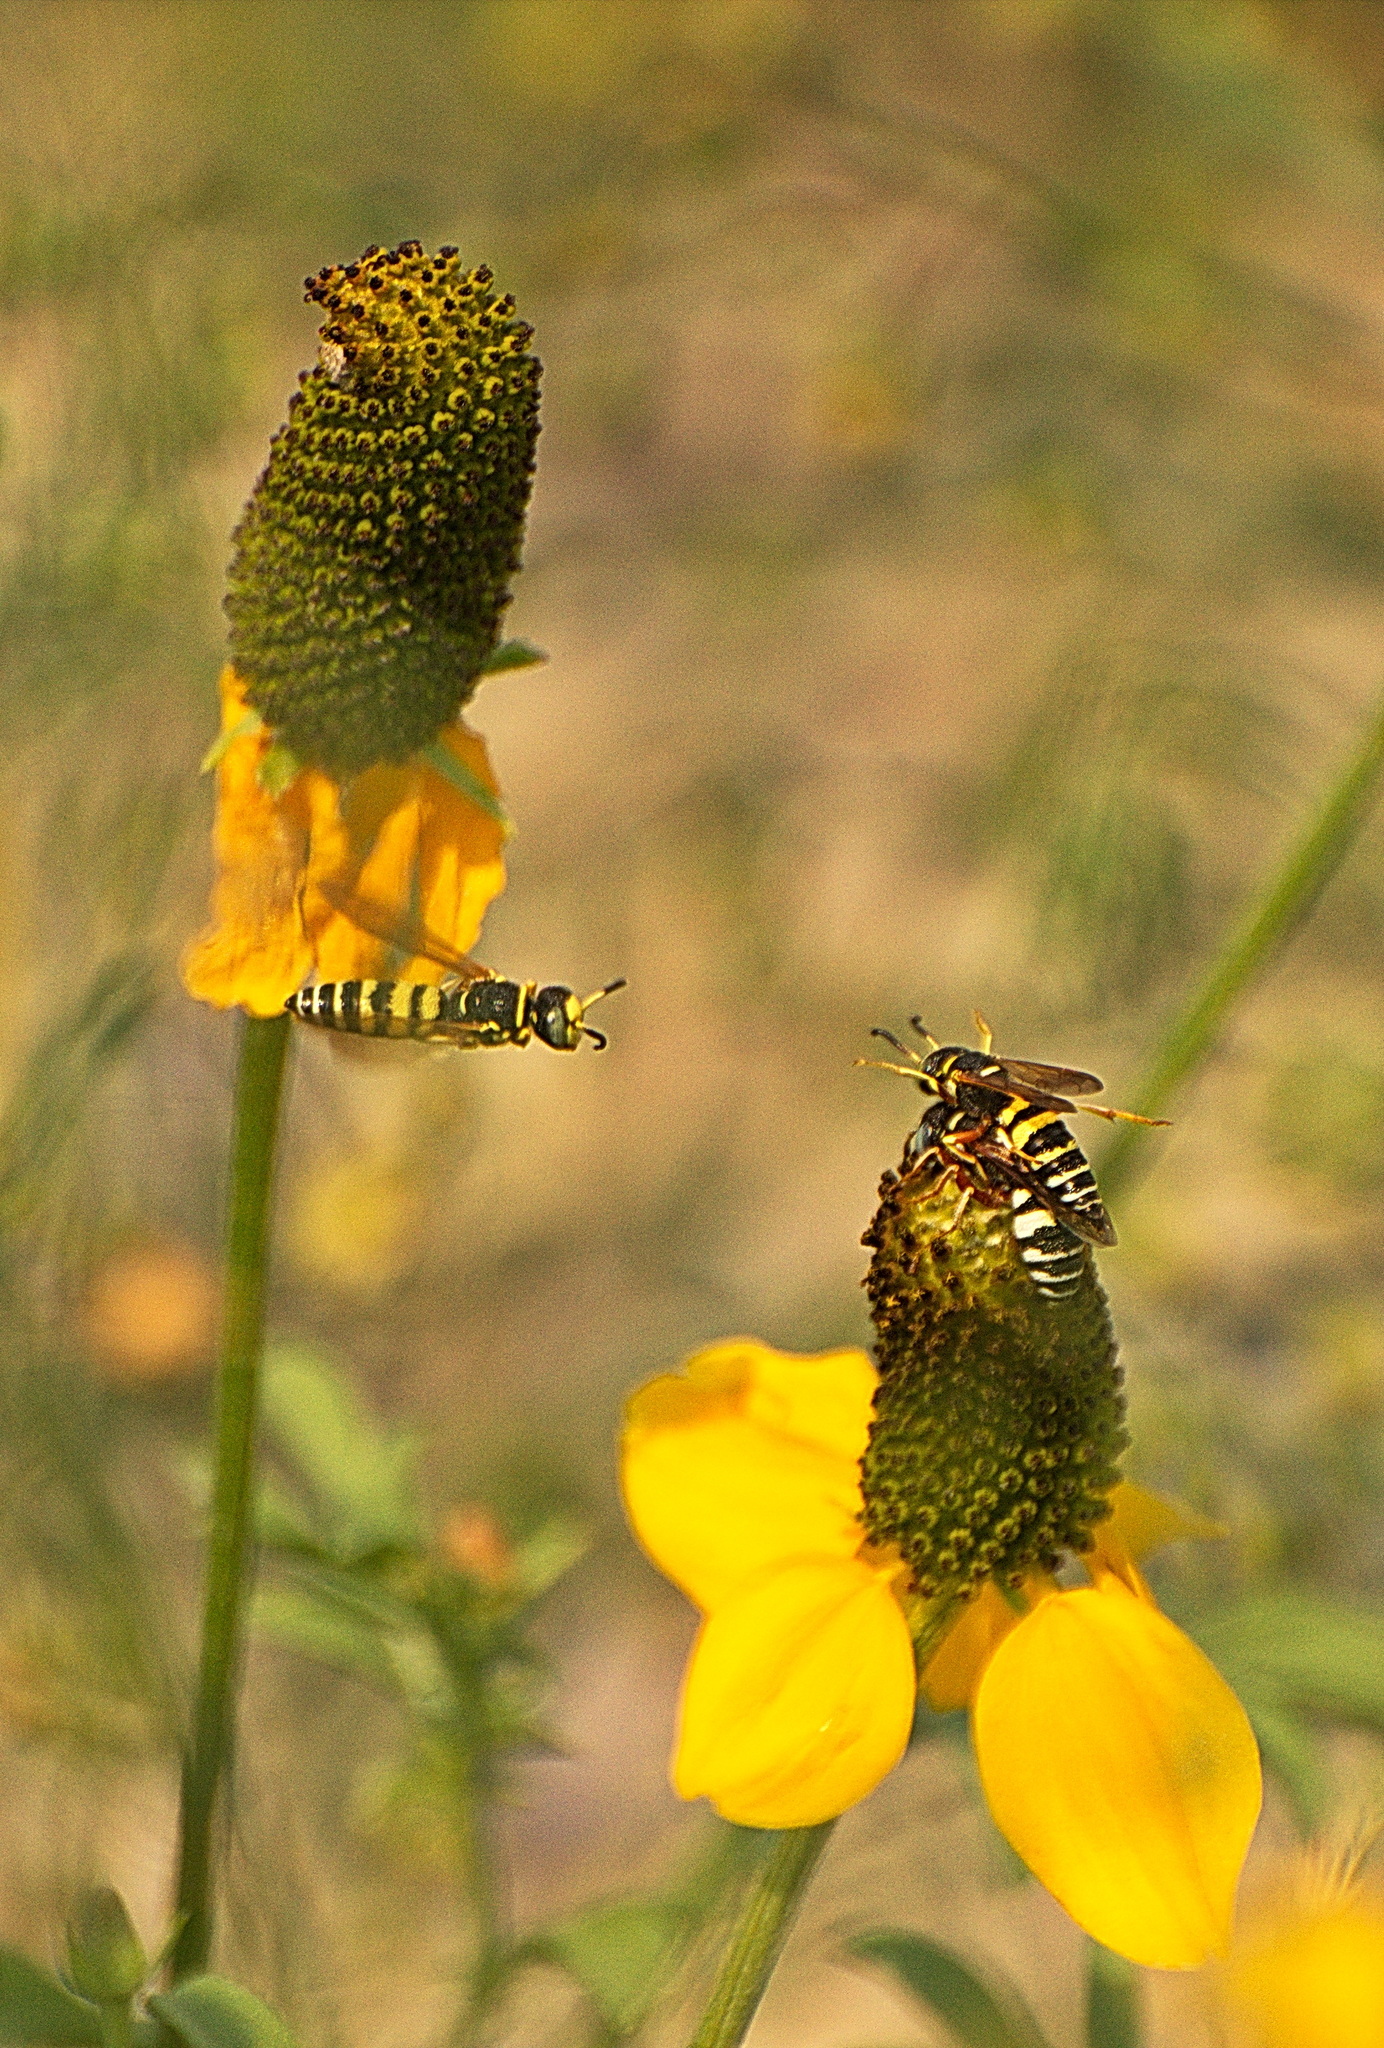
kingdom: Animalia
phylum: Arthropoda
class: Insecta
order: Hymenoptera
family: Crabronidae
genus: Philanthus
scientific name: Philanthus ventilabris
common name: Bee-killer wasp
